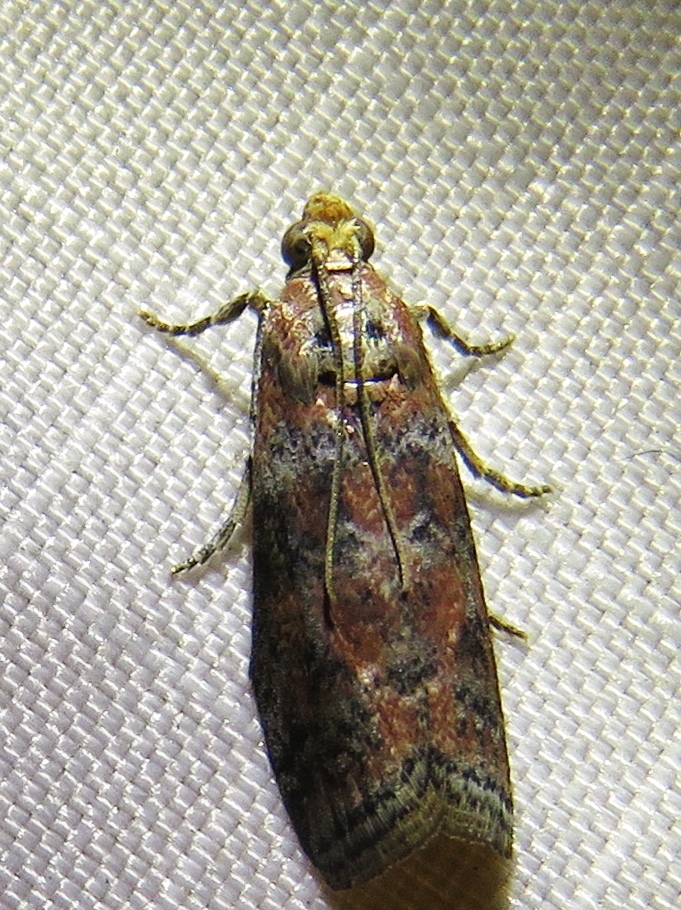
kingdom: Animalia
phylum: Arthropoda
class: Insecta
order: Lepidoptera
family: Pyralidae
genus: Sciota
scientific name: Sciota
